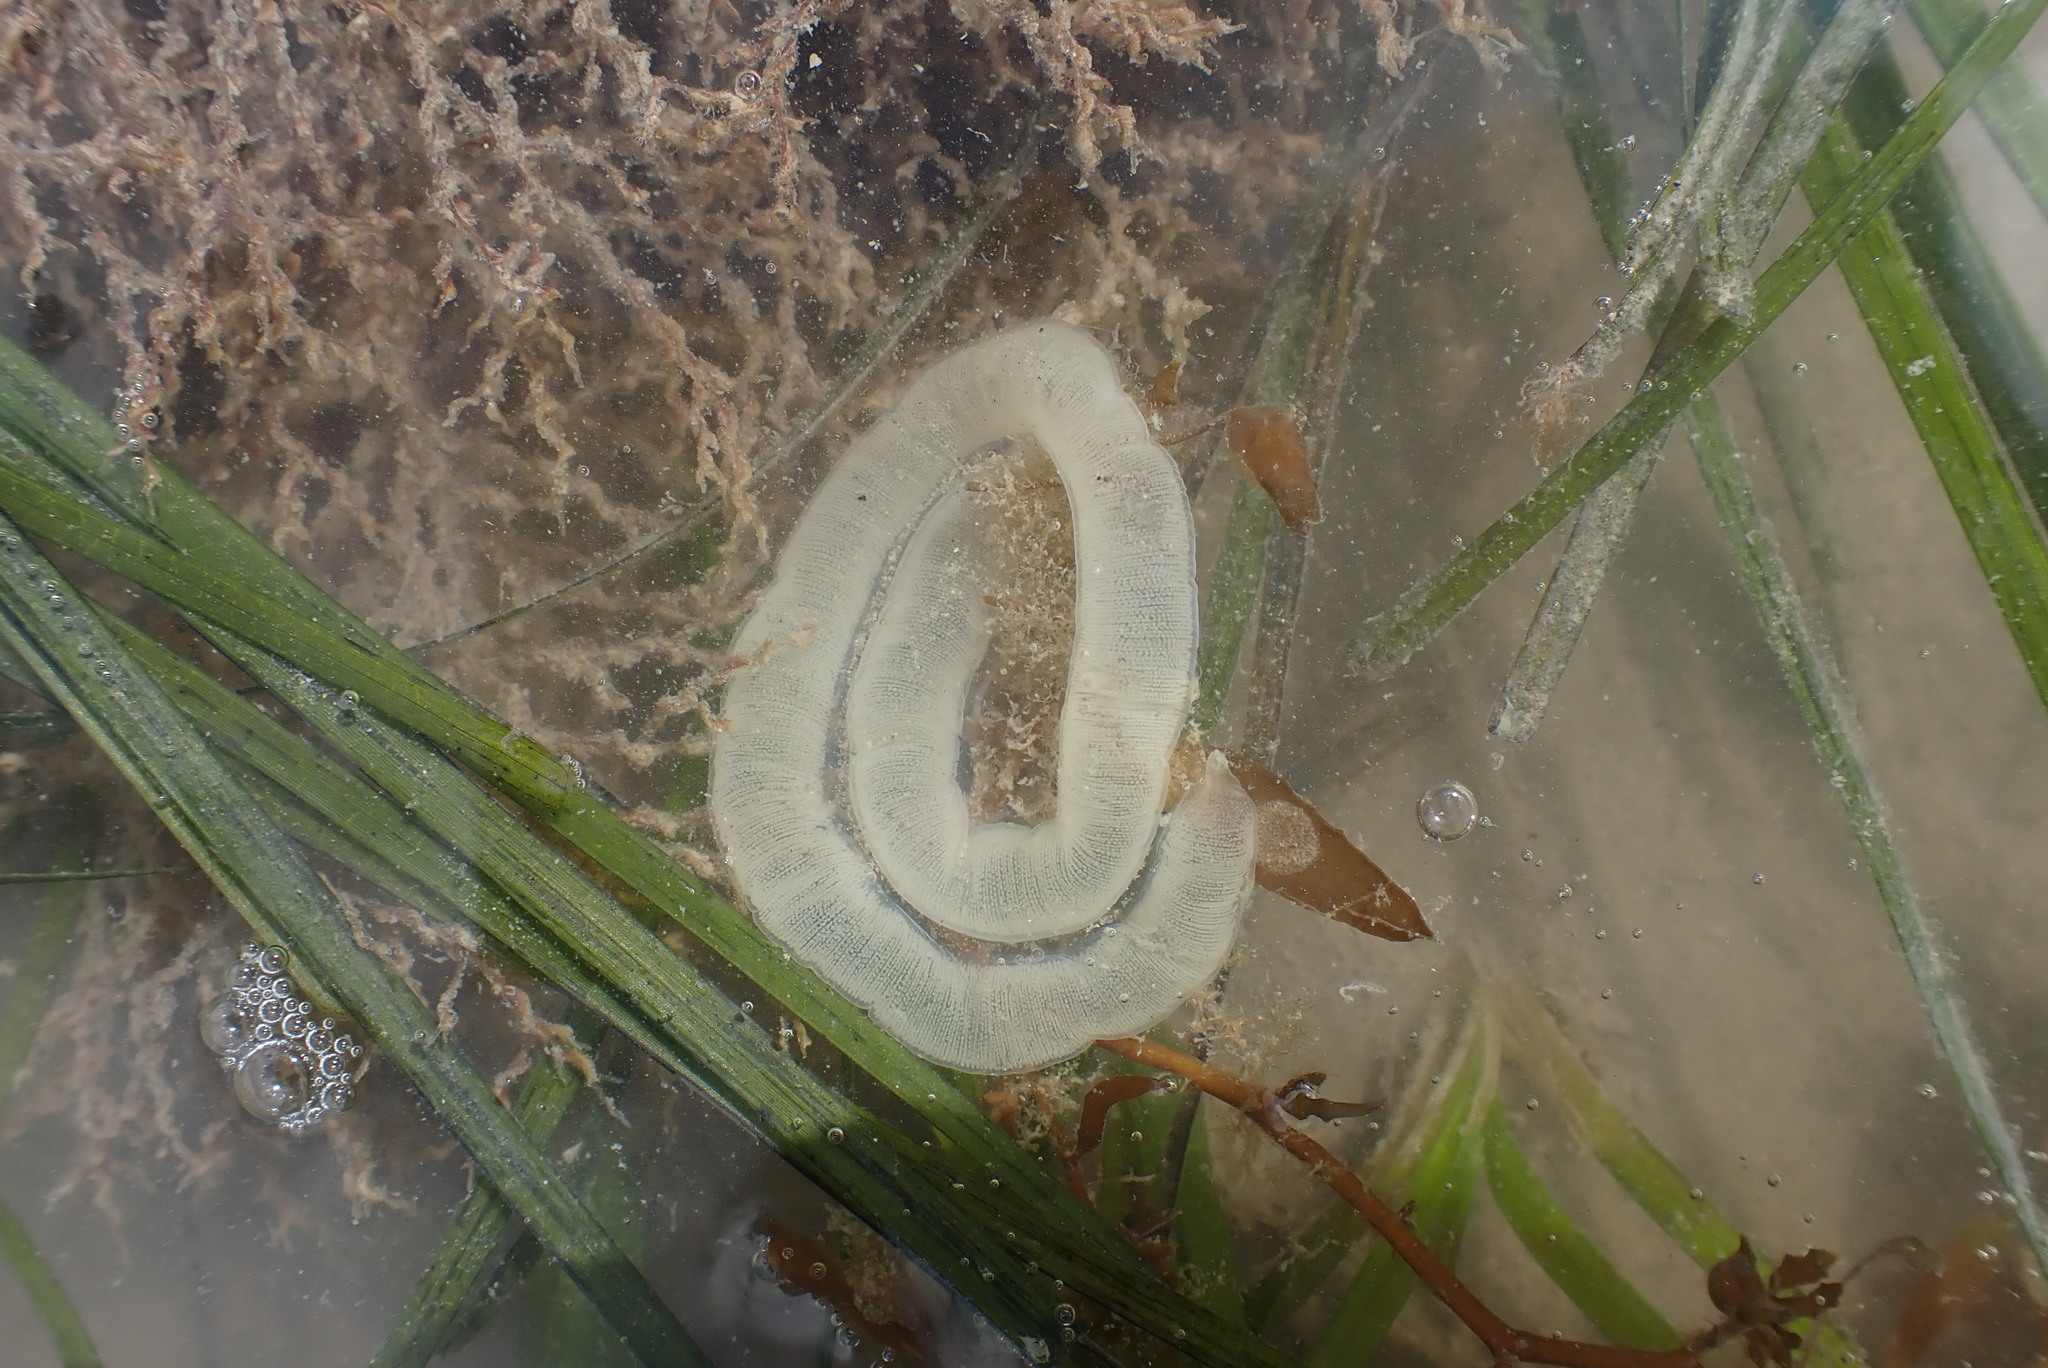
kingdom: Animalia
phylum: Mollusca
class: Gastropoda
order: Pleurobranchida
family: Pleurobranchaeidae
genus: Pleurobranchaea
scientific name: Pleurobranchaea maculata
